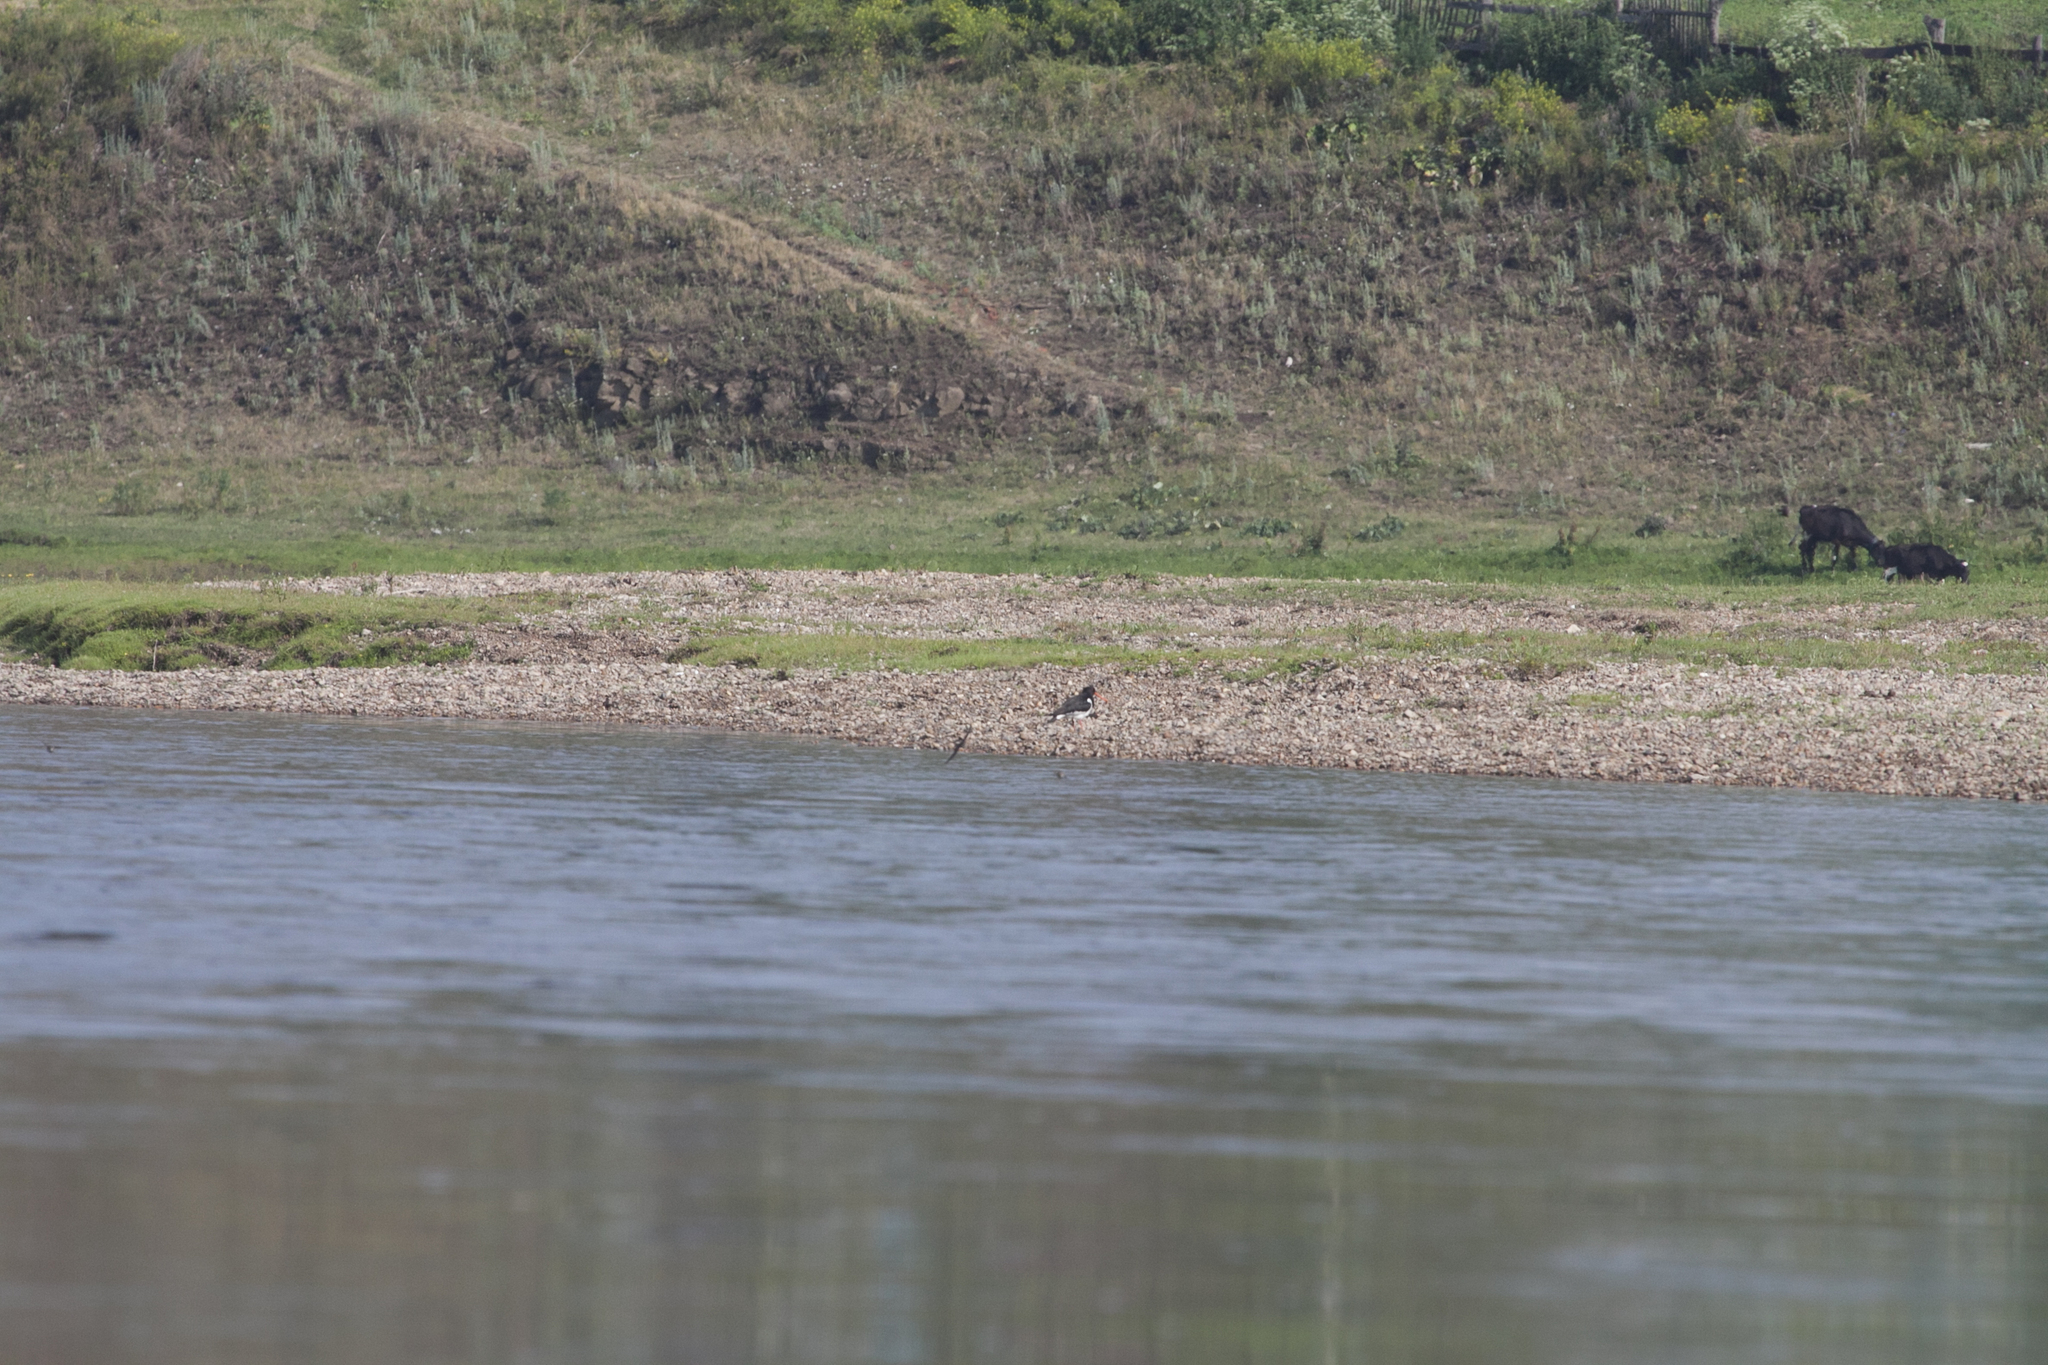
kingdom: Animalia
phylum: Chordata
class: Aves
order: Charadriiformes
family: Haematopodidae
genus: Haematopus
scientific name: Haematopus ostralegus
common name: Eurasian oystercatcher
